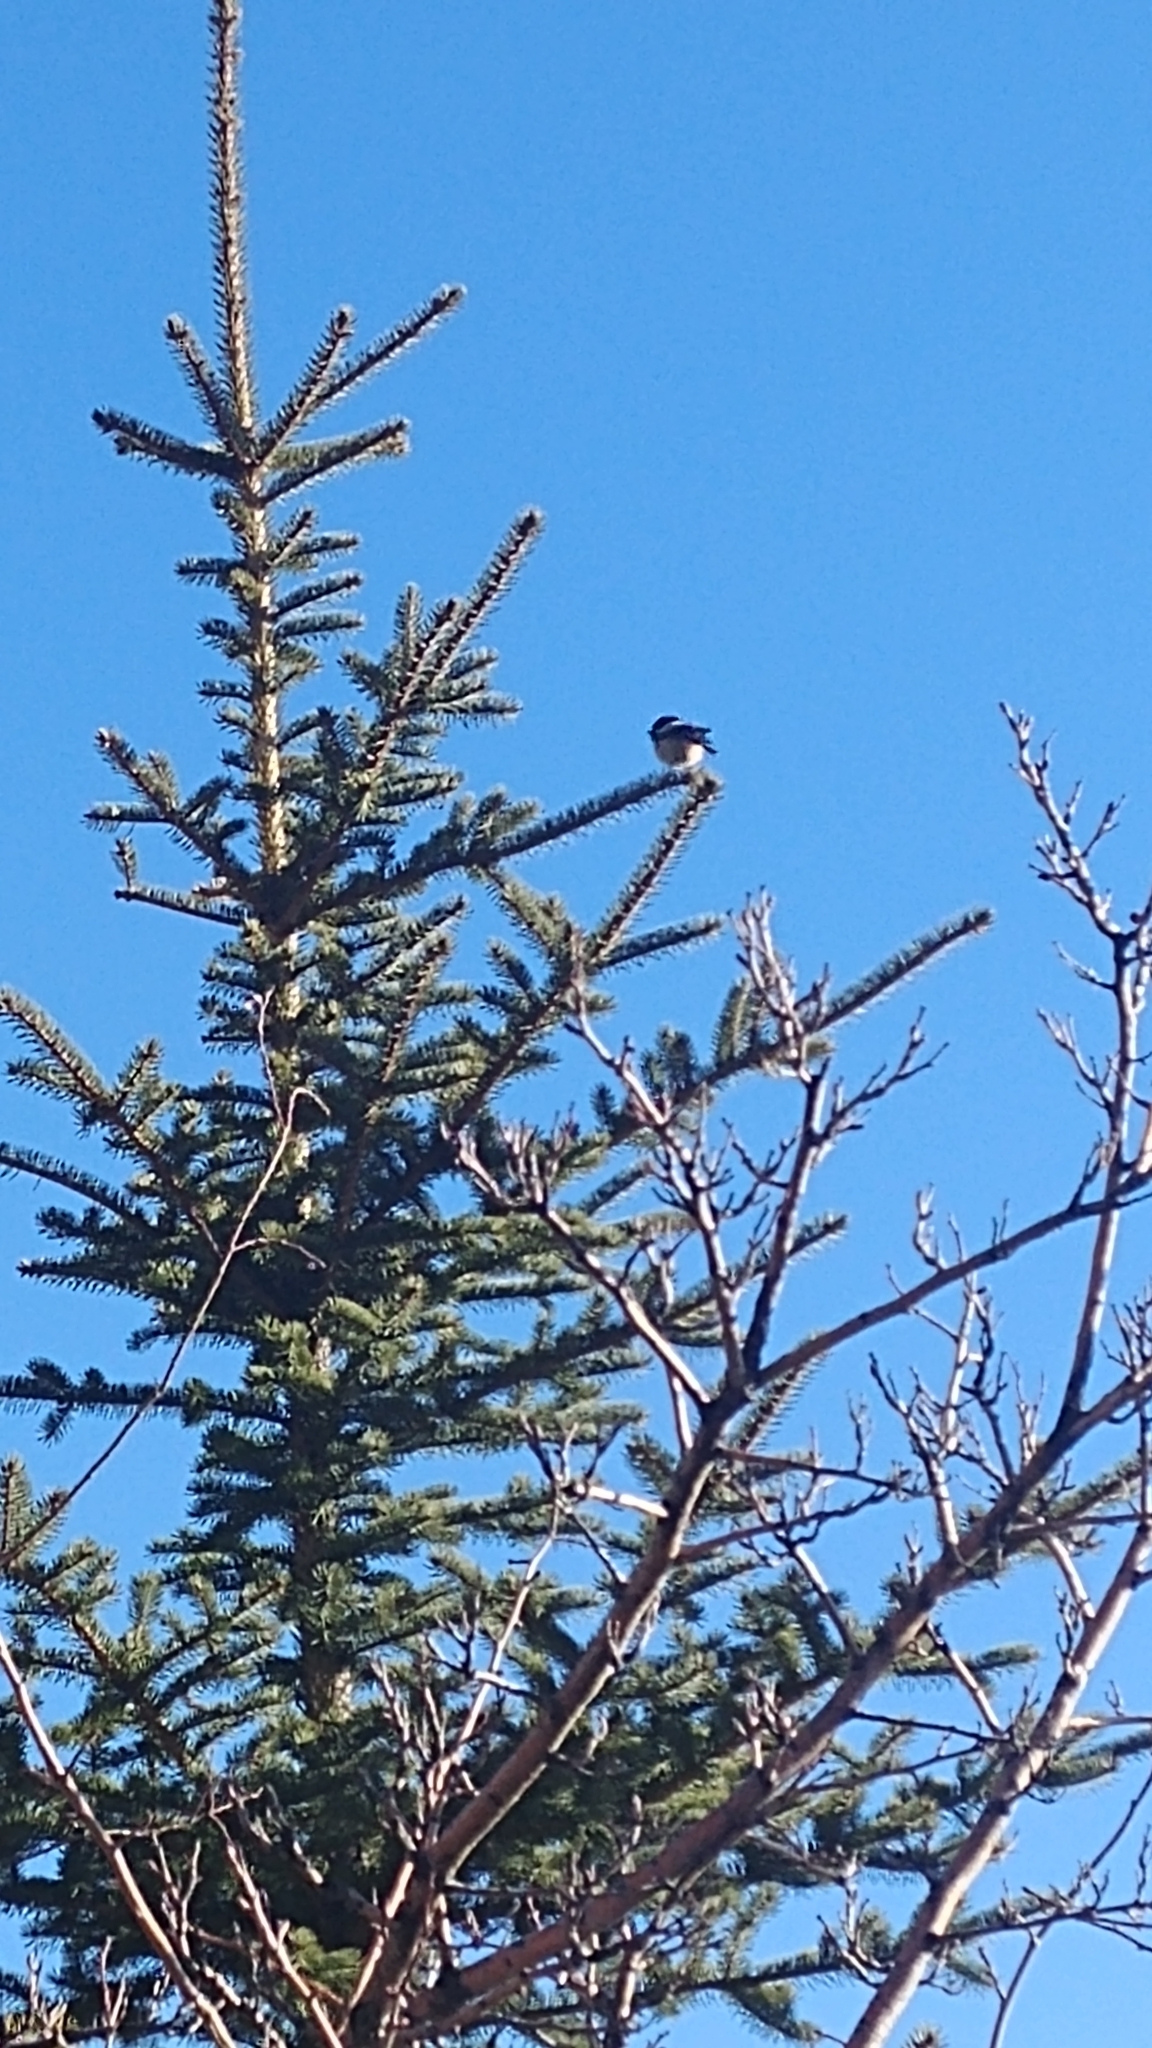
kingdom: Animalia
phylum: Chordata
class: Aves
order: Passeriformes
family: Paridae
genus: Poecile
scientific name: Poecile atricapillus
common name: Black-capped chickadee
